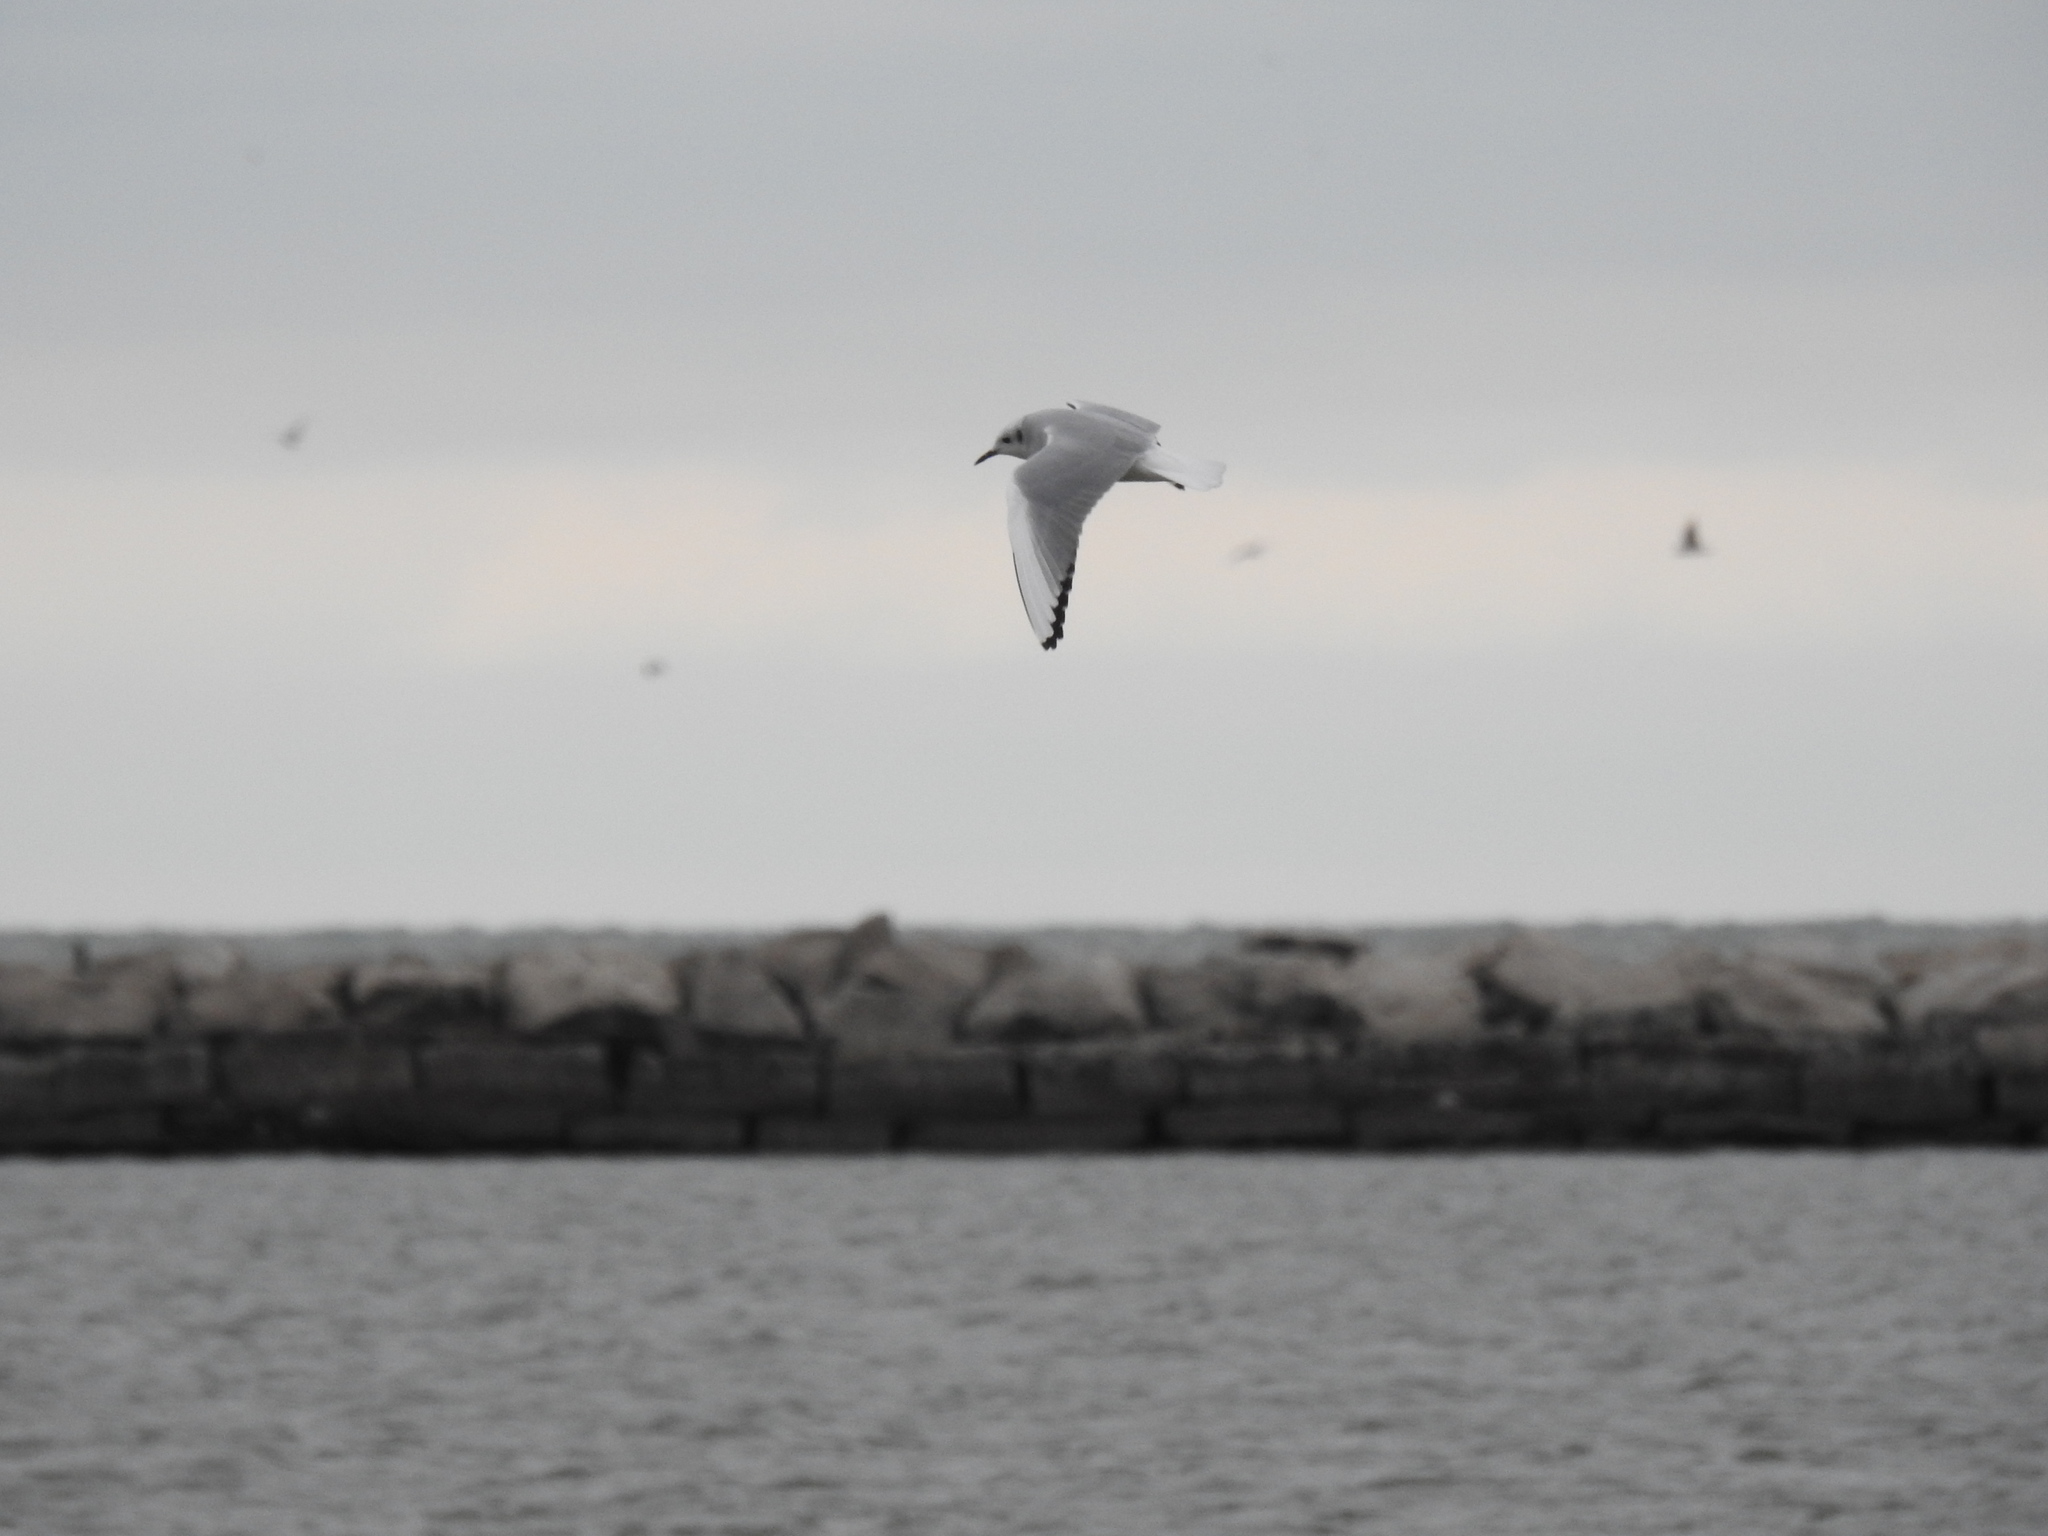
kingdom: Animalia
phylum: Chordata
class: Aves
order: Charadriiformes
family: Laridae
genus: Chroicocephalus
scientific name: Chroicocephalus philadelphia
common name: Bonaparte's gull
